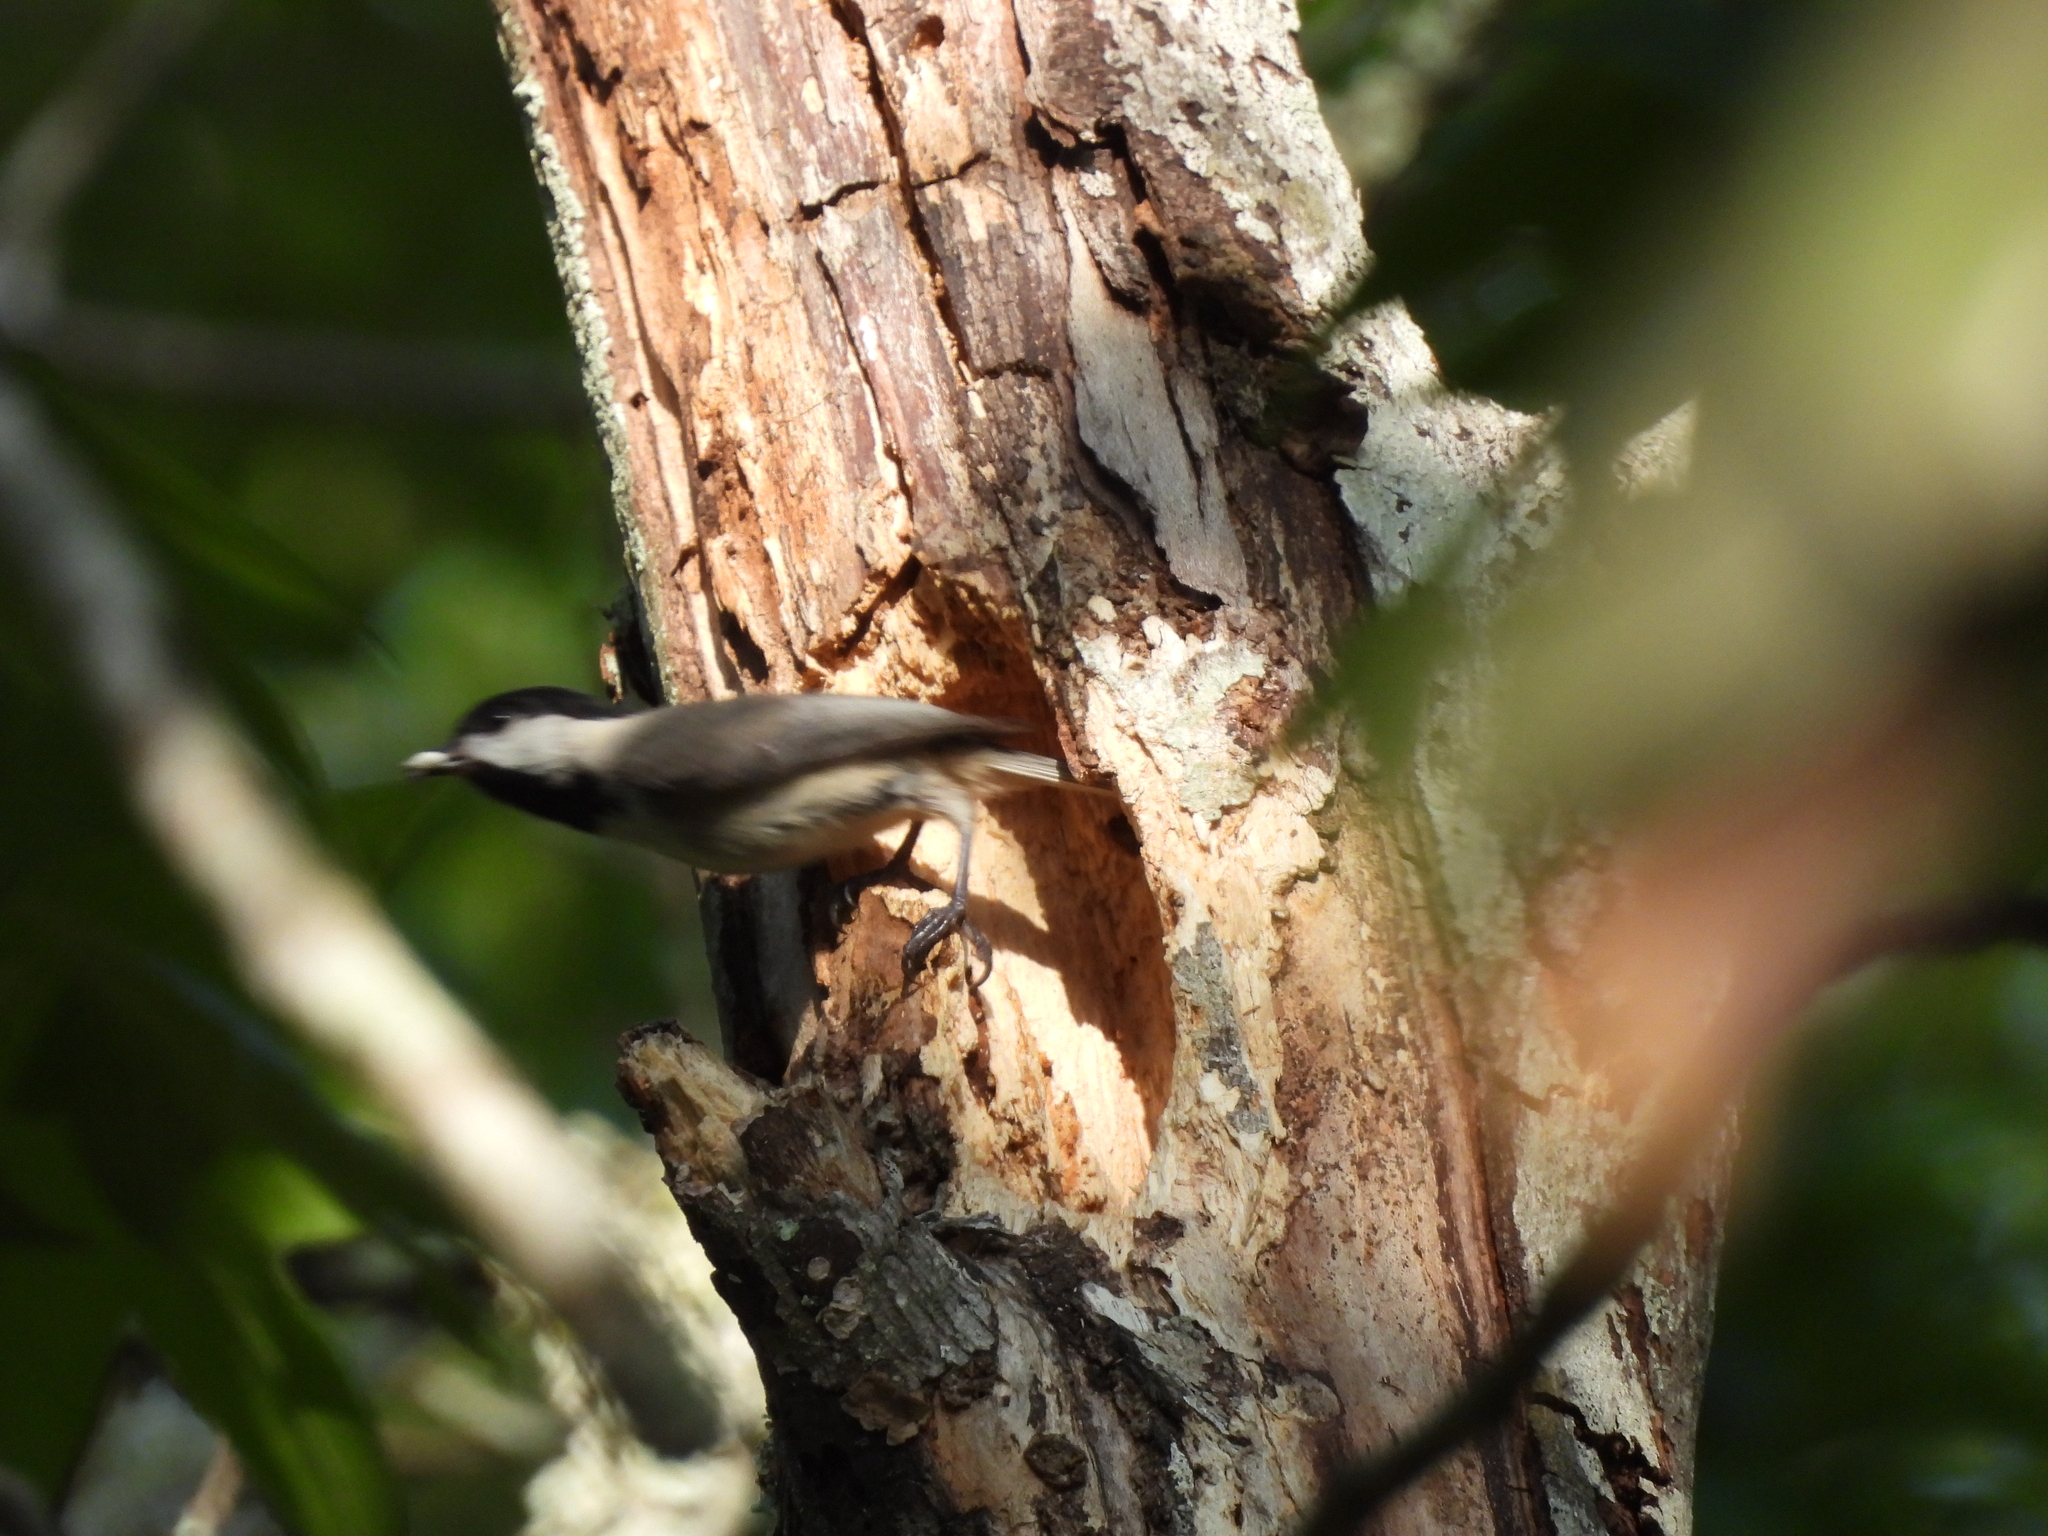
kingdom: Animalia
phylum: Chordata
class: Aves
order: Passeriformes
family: Paridae
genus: Poecile
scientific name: Poecile carolinensis
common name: Carolina chickadee
